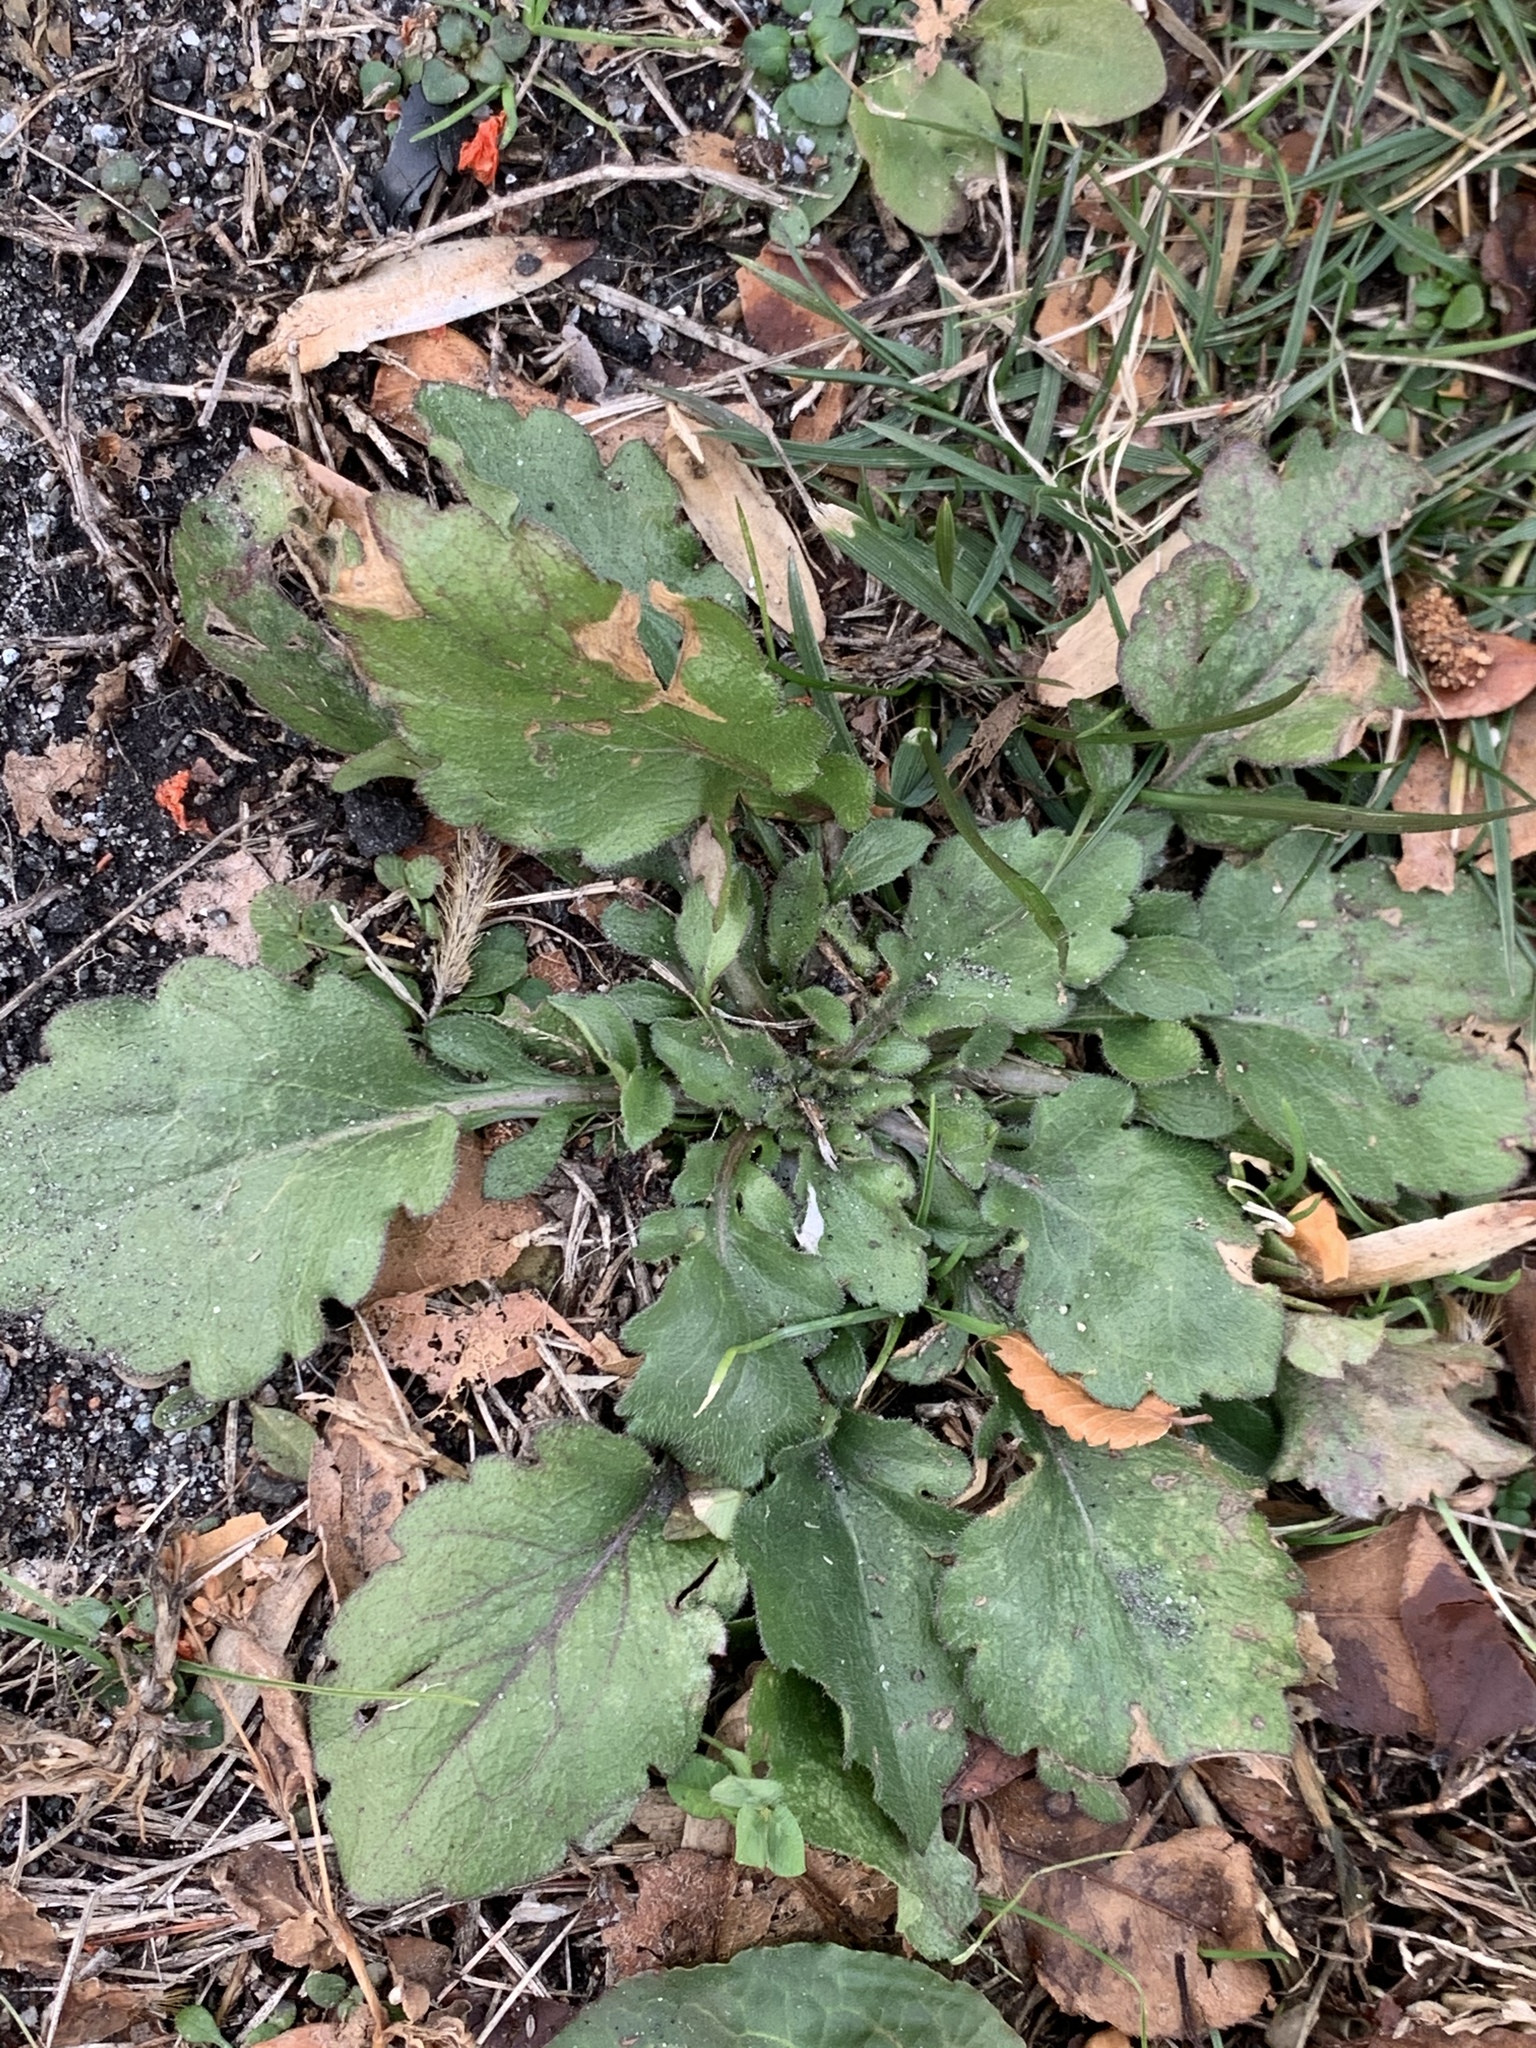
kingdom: Plantae
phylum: Tracheophyta
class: Magnoliopsida
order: Asterales
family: Asteraceae
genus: Erigeron
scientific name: Erigeron canadensis
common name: Canadian fleabane
